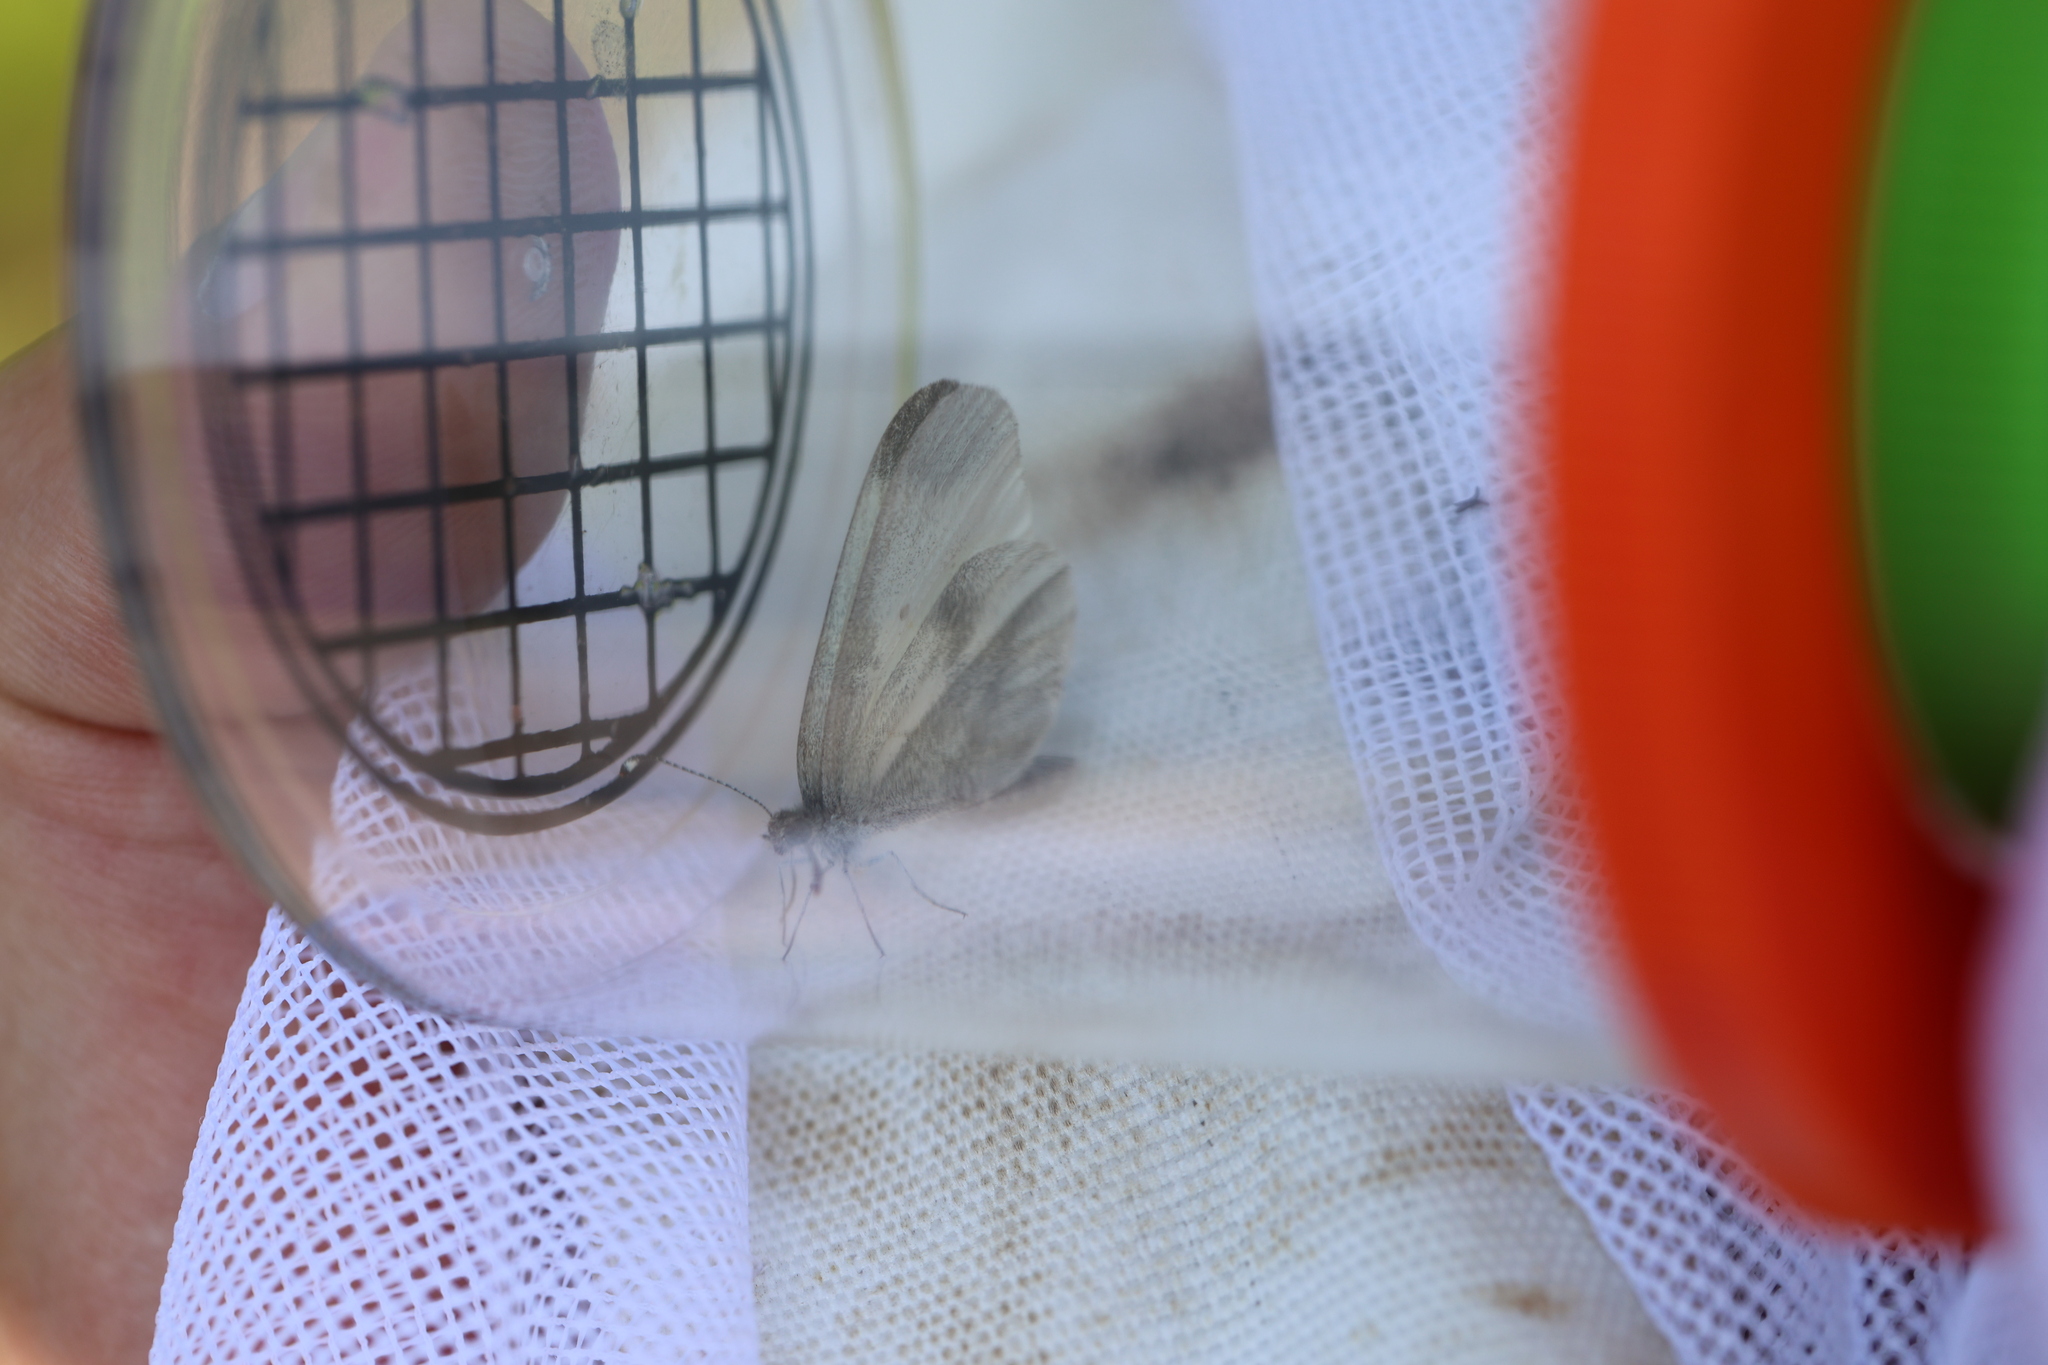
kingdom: Animalia
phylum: Arthropoda
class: Insecta
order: Lepidoptera
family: Pieridae
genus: Leptidea
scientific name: Leptidea
